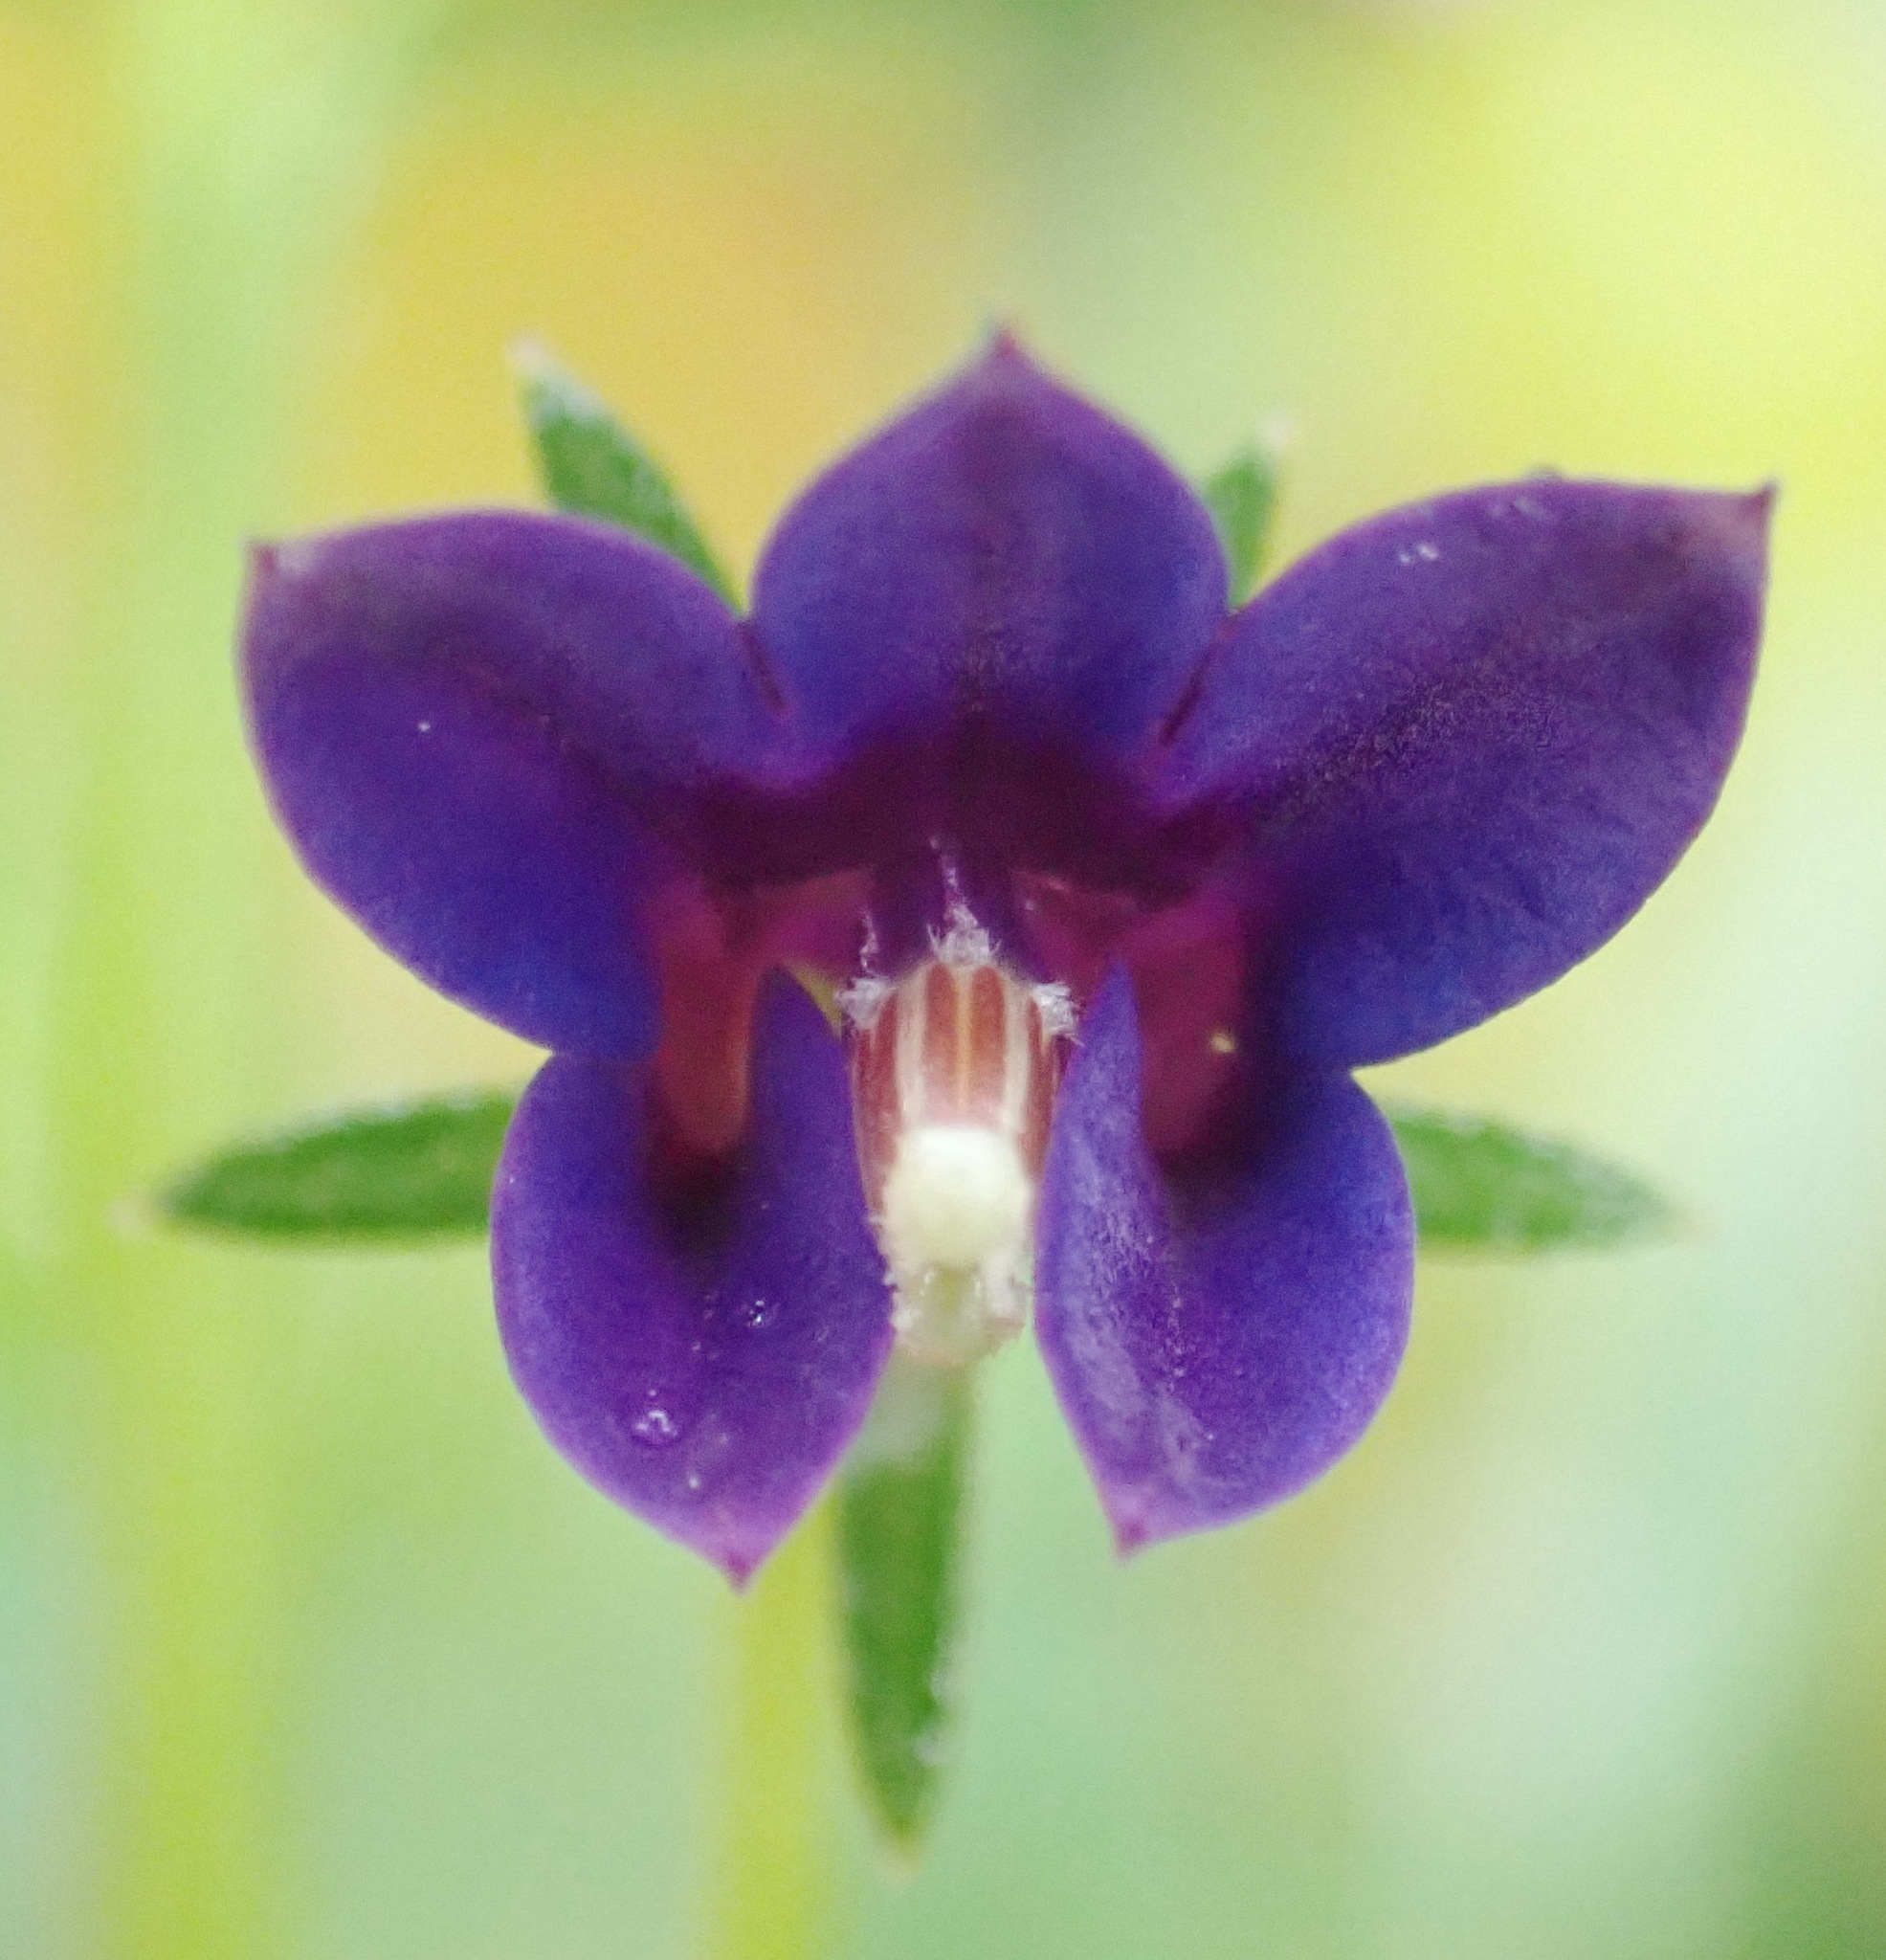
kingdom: Plantae
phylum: Tracheophyta
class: Magnoliopsida
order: Asterales
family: Campanulaceae
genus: Monopsis
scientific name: Monopsis simplex
